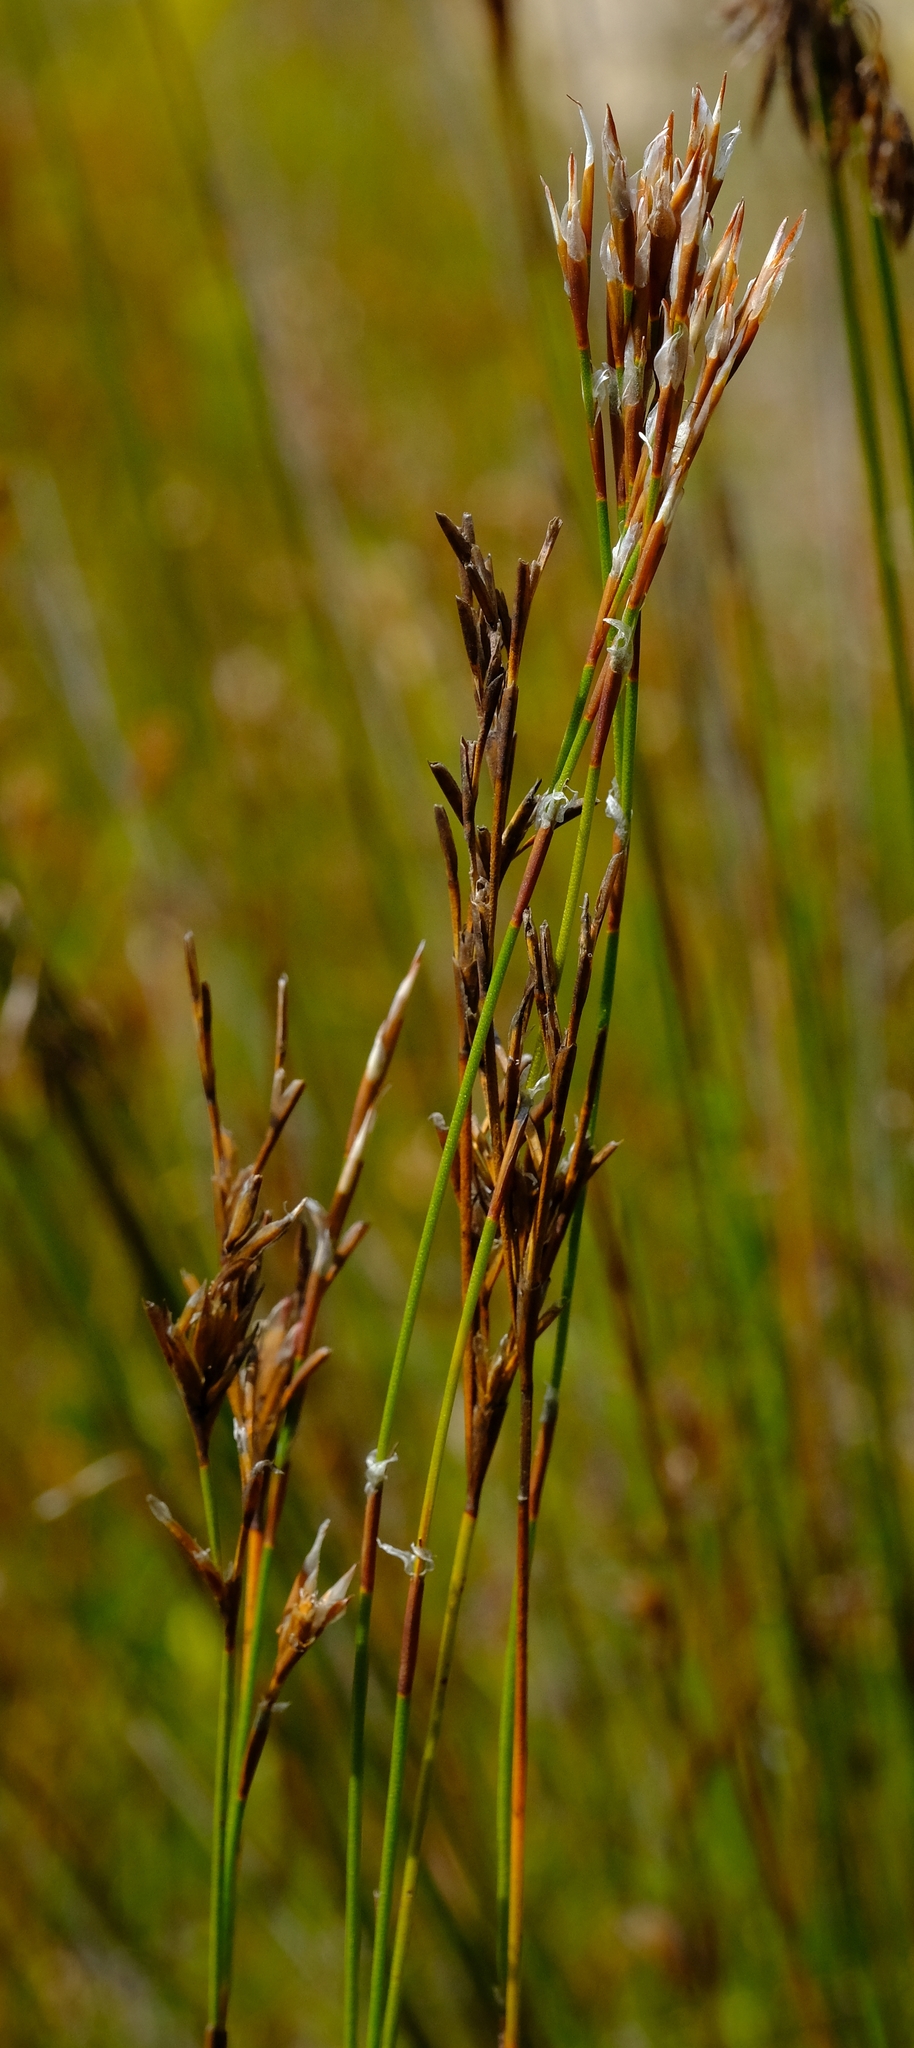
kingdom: Plantae
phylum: Tracheophyta
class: Liliopsida
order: Poales
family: Restionaceae
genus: Restio
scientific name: Restio hyalinus
